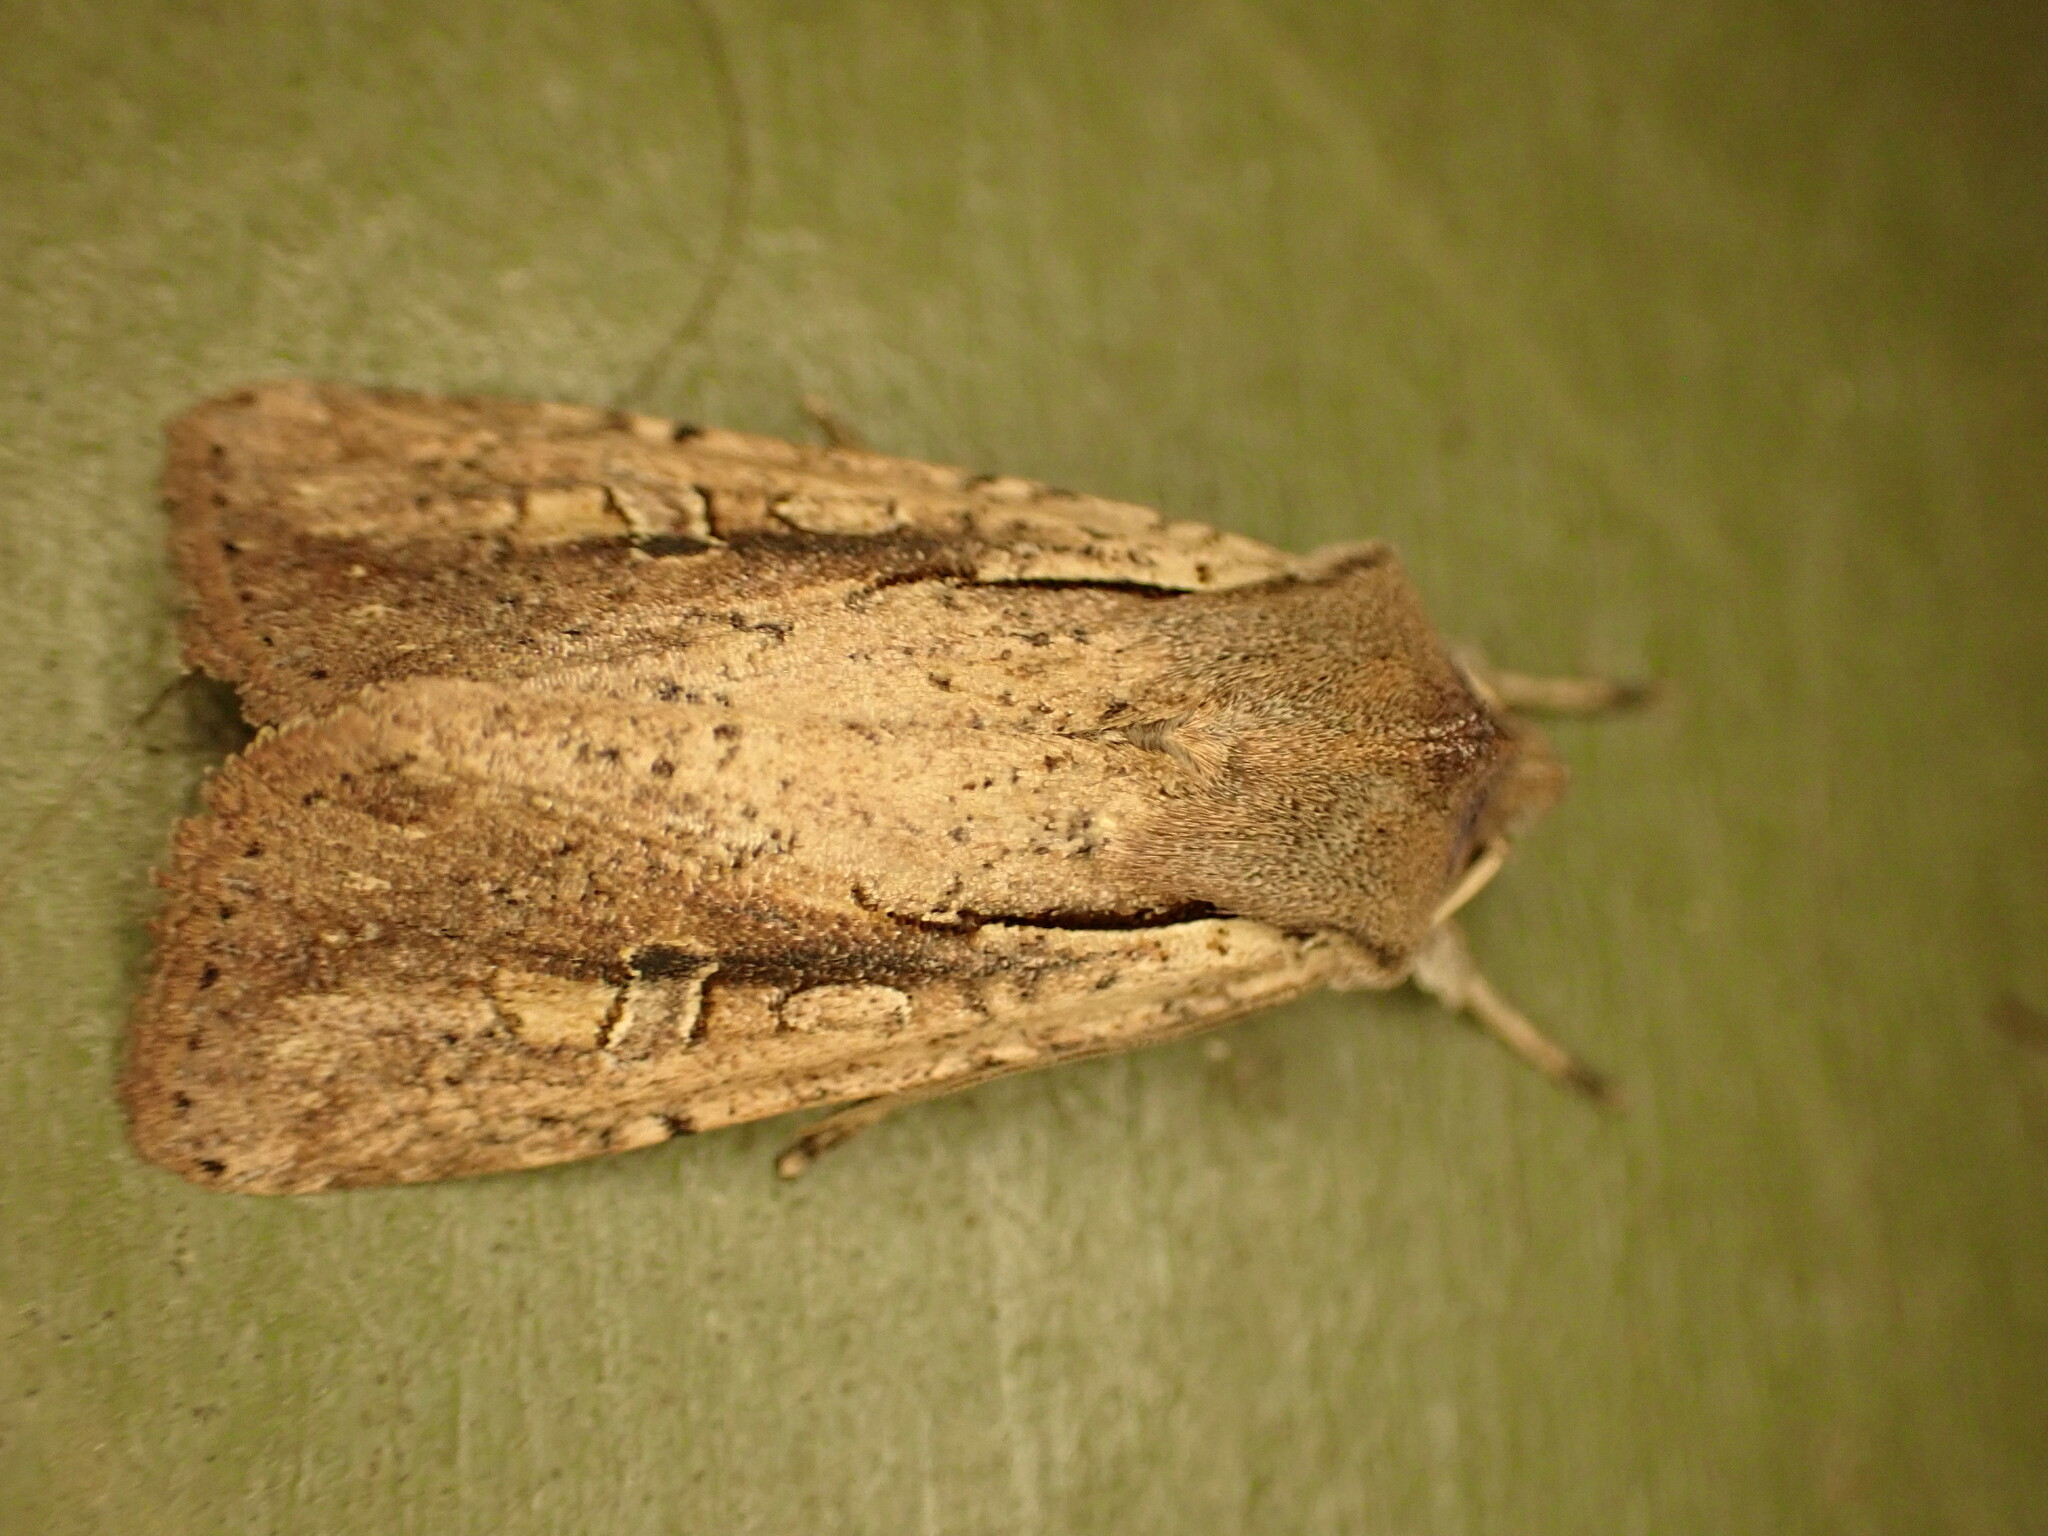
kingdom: Animalia
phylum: Arthropoda
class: Insecta
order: Lepidoptera
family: Noctuidae
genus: Ichneutica
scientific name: Ichneutica atristriga
